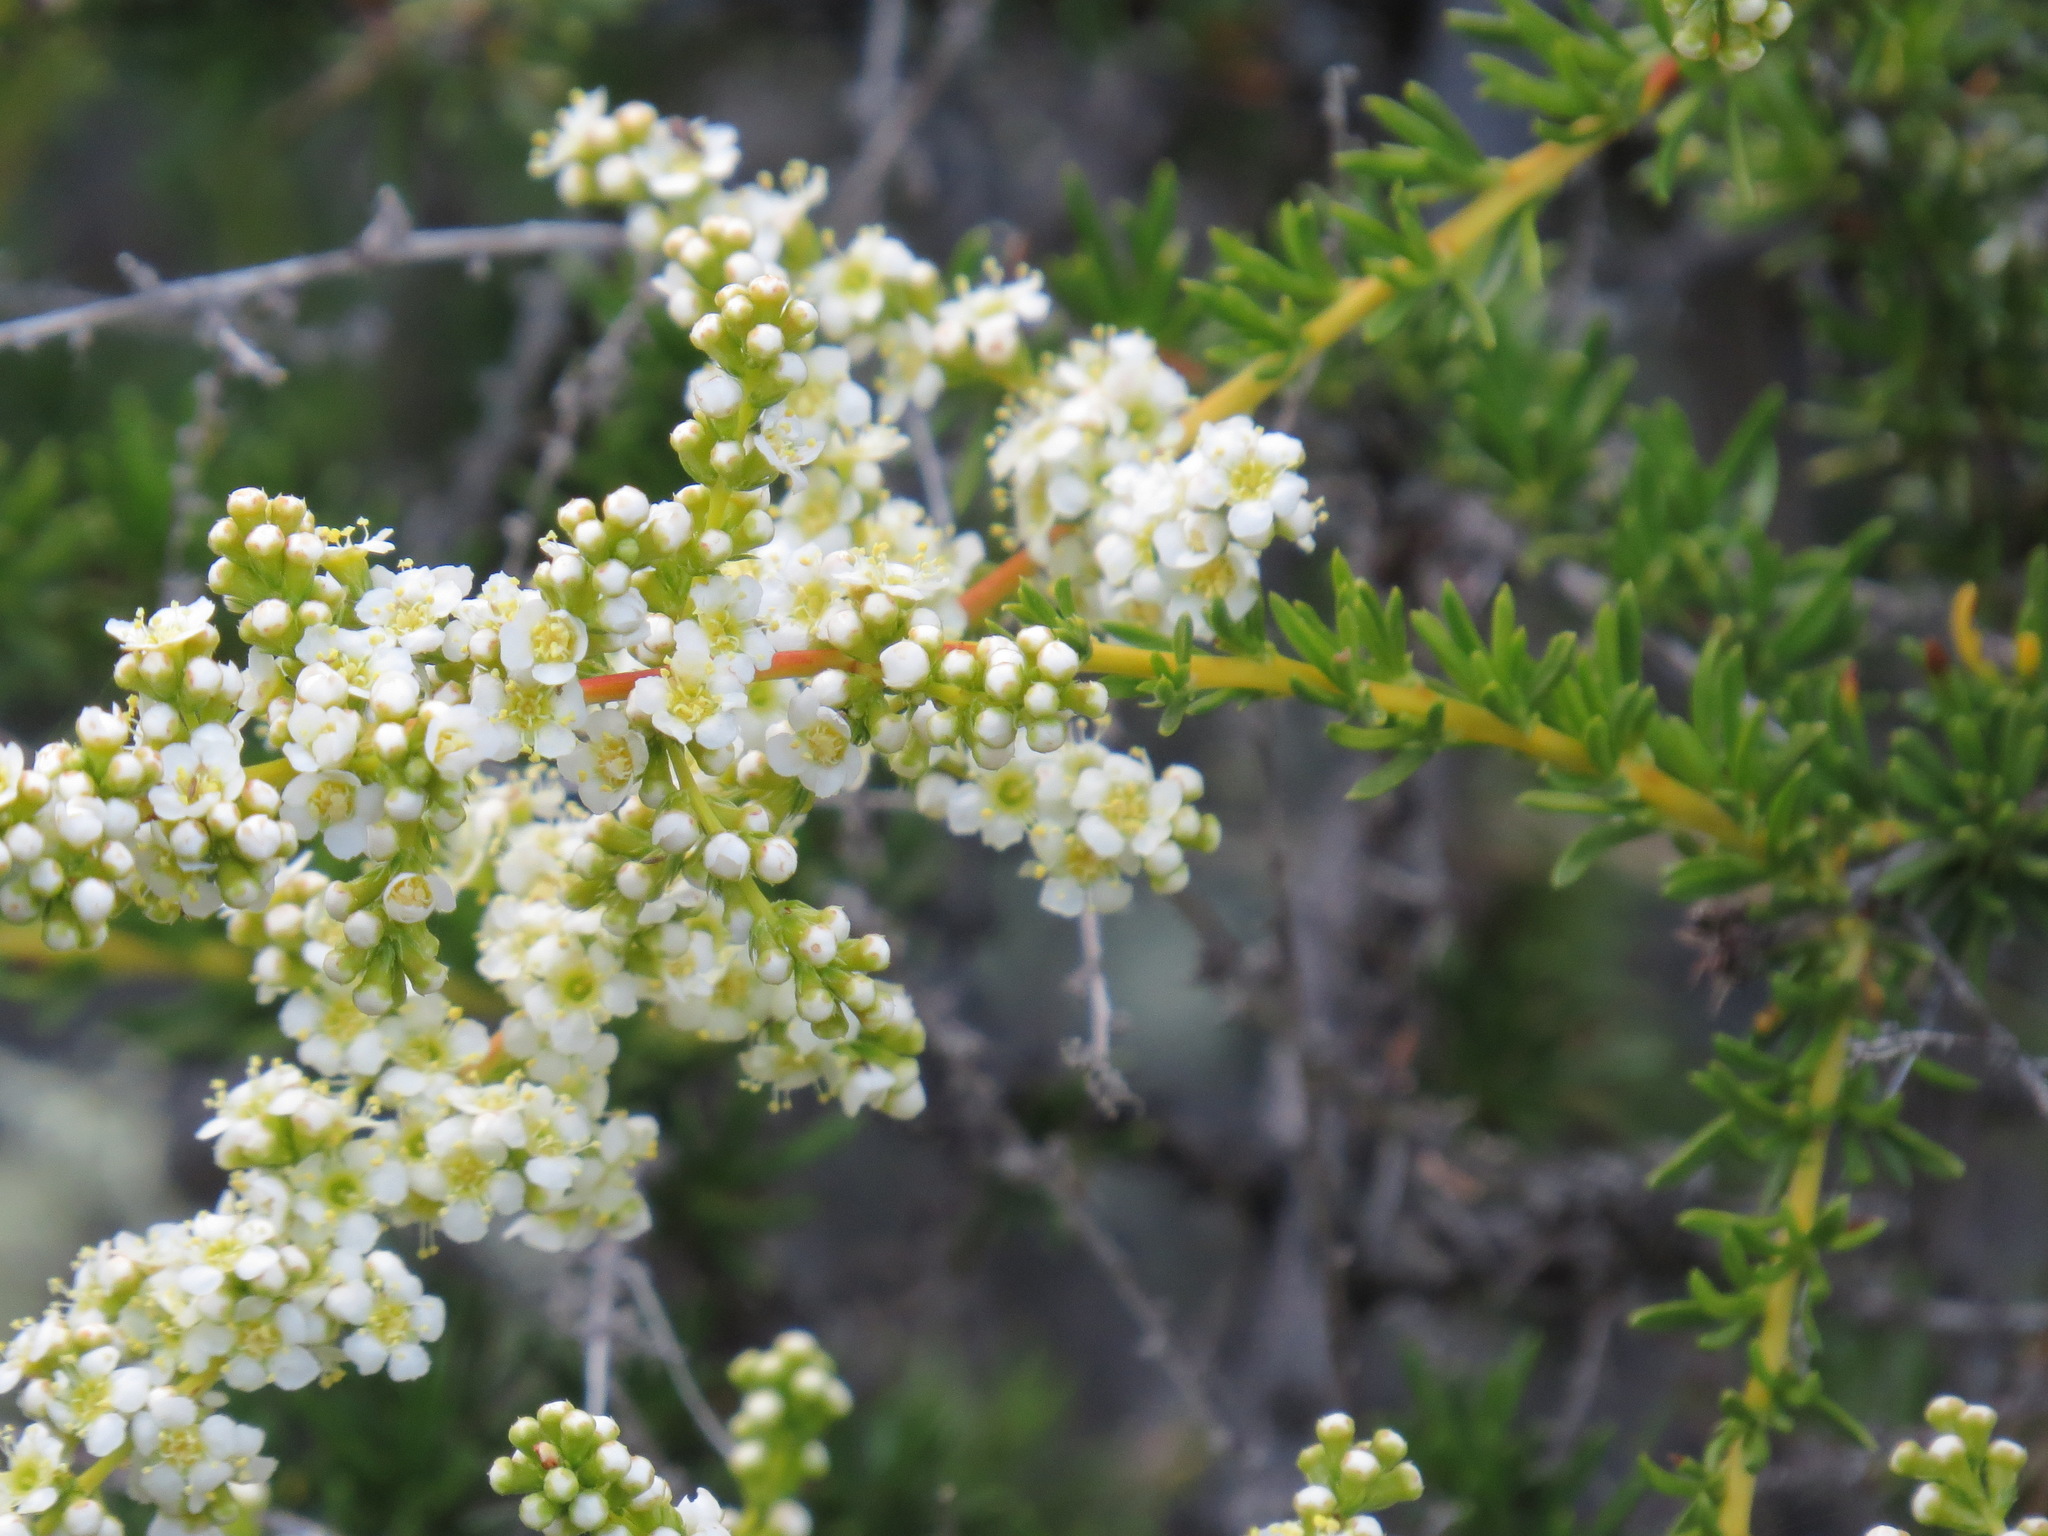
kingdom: Plantae
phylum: Tracheophyta
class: Magnoliopsida
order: Rosales
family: Rosaceae
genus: Adenostoma
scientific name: Adenostoma fasciculatum
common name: Chamise
